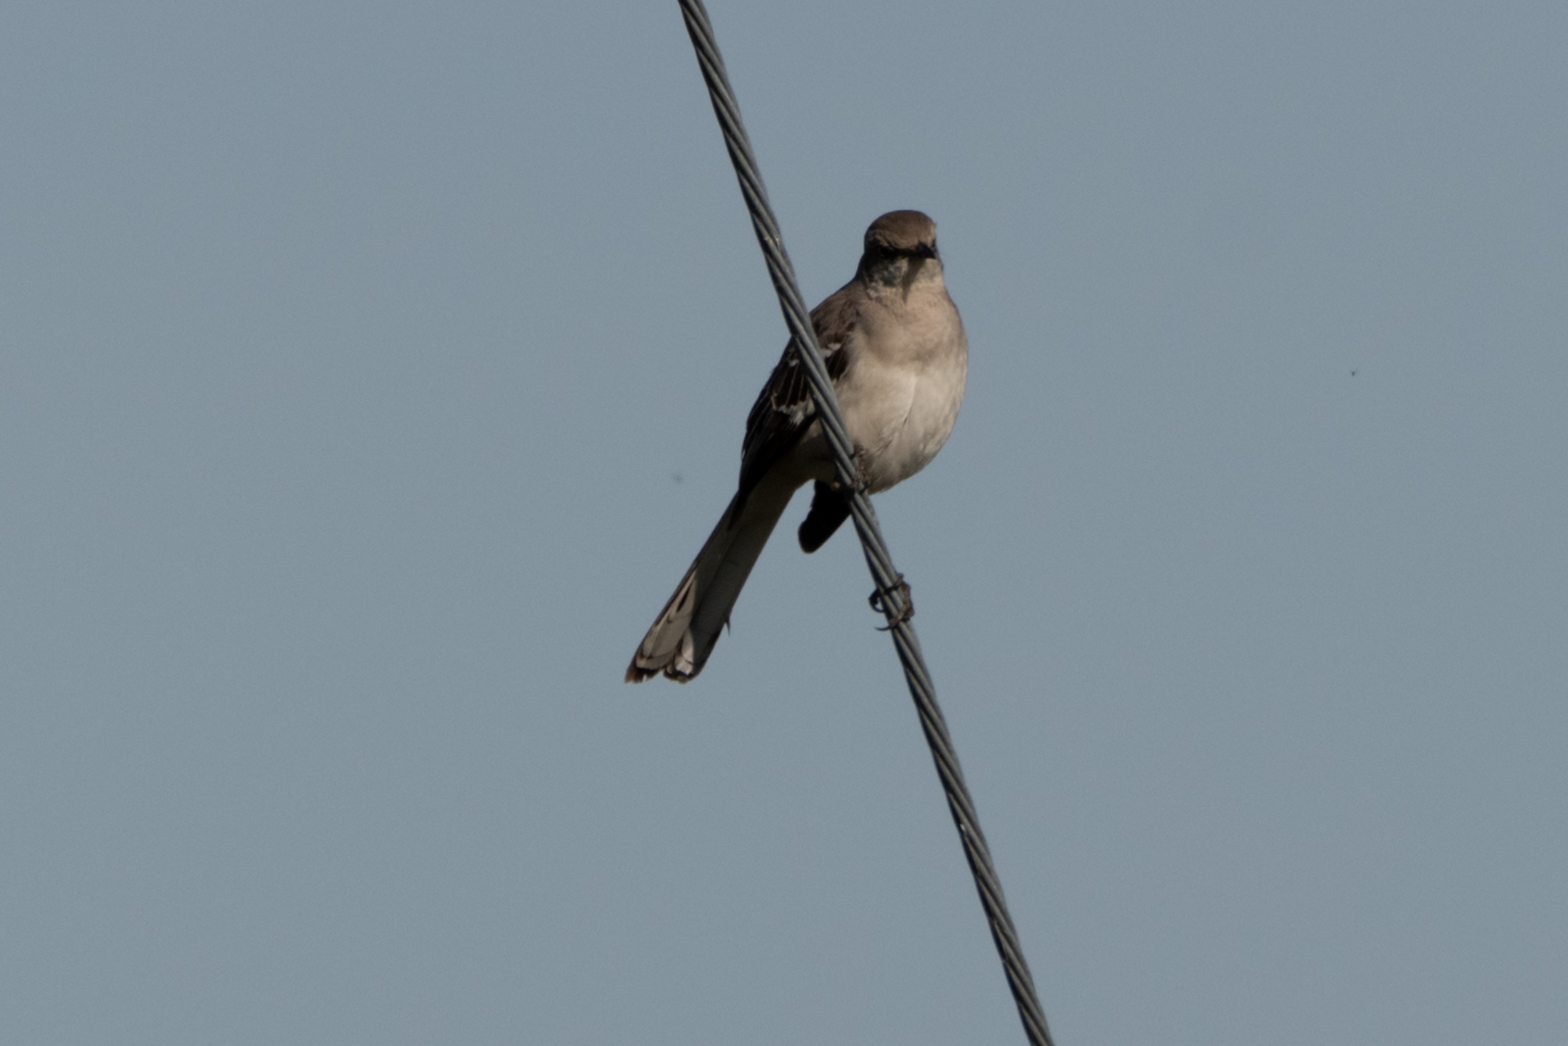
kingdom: Animalia
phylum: Chordata
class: Aves
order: Passeriformes
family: Mimidae
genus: Mimus
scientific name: Mimus polyglottos
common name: Northern mockingbird
